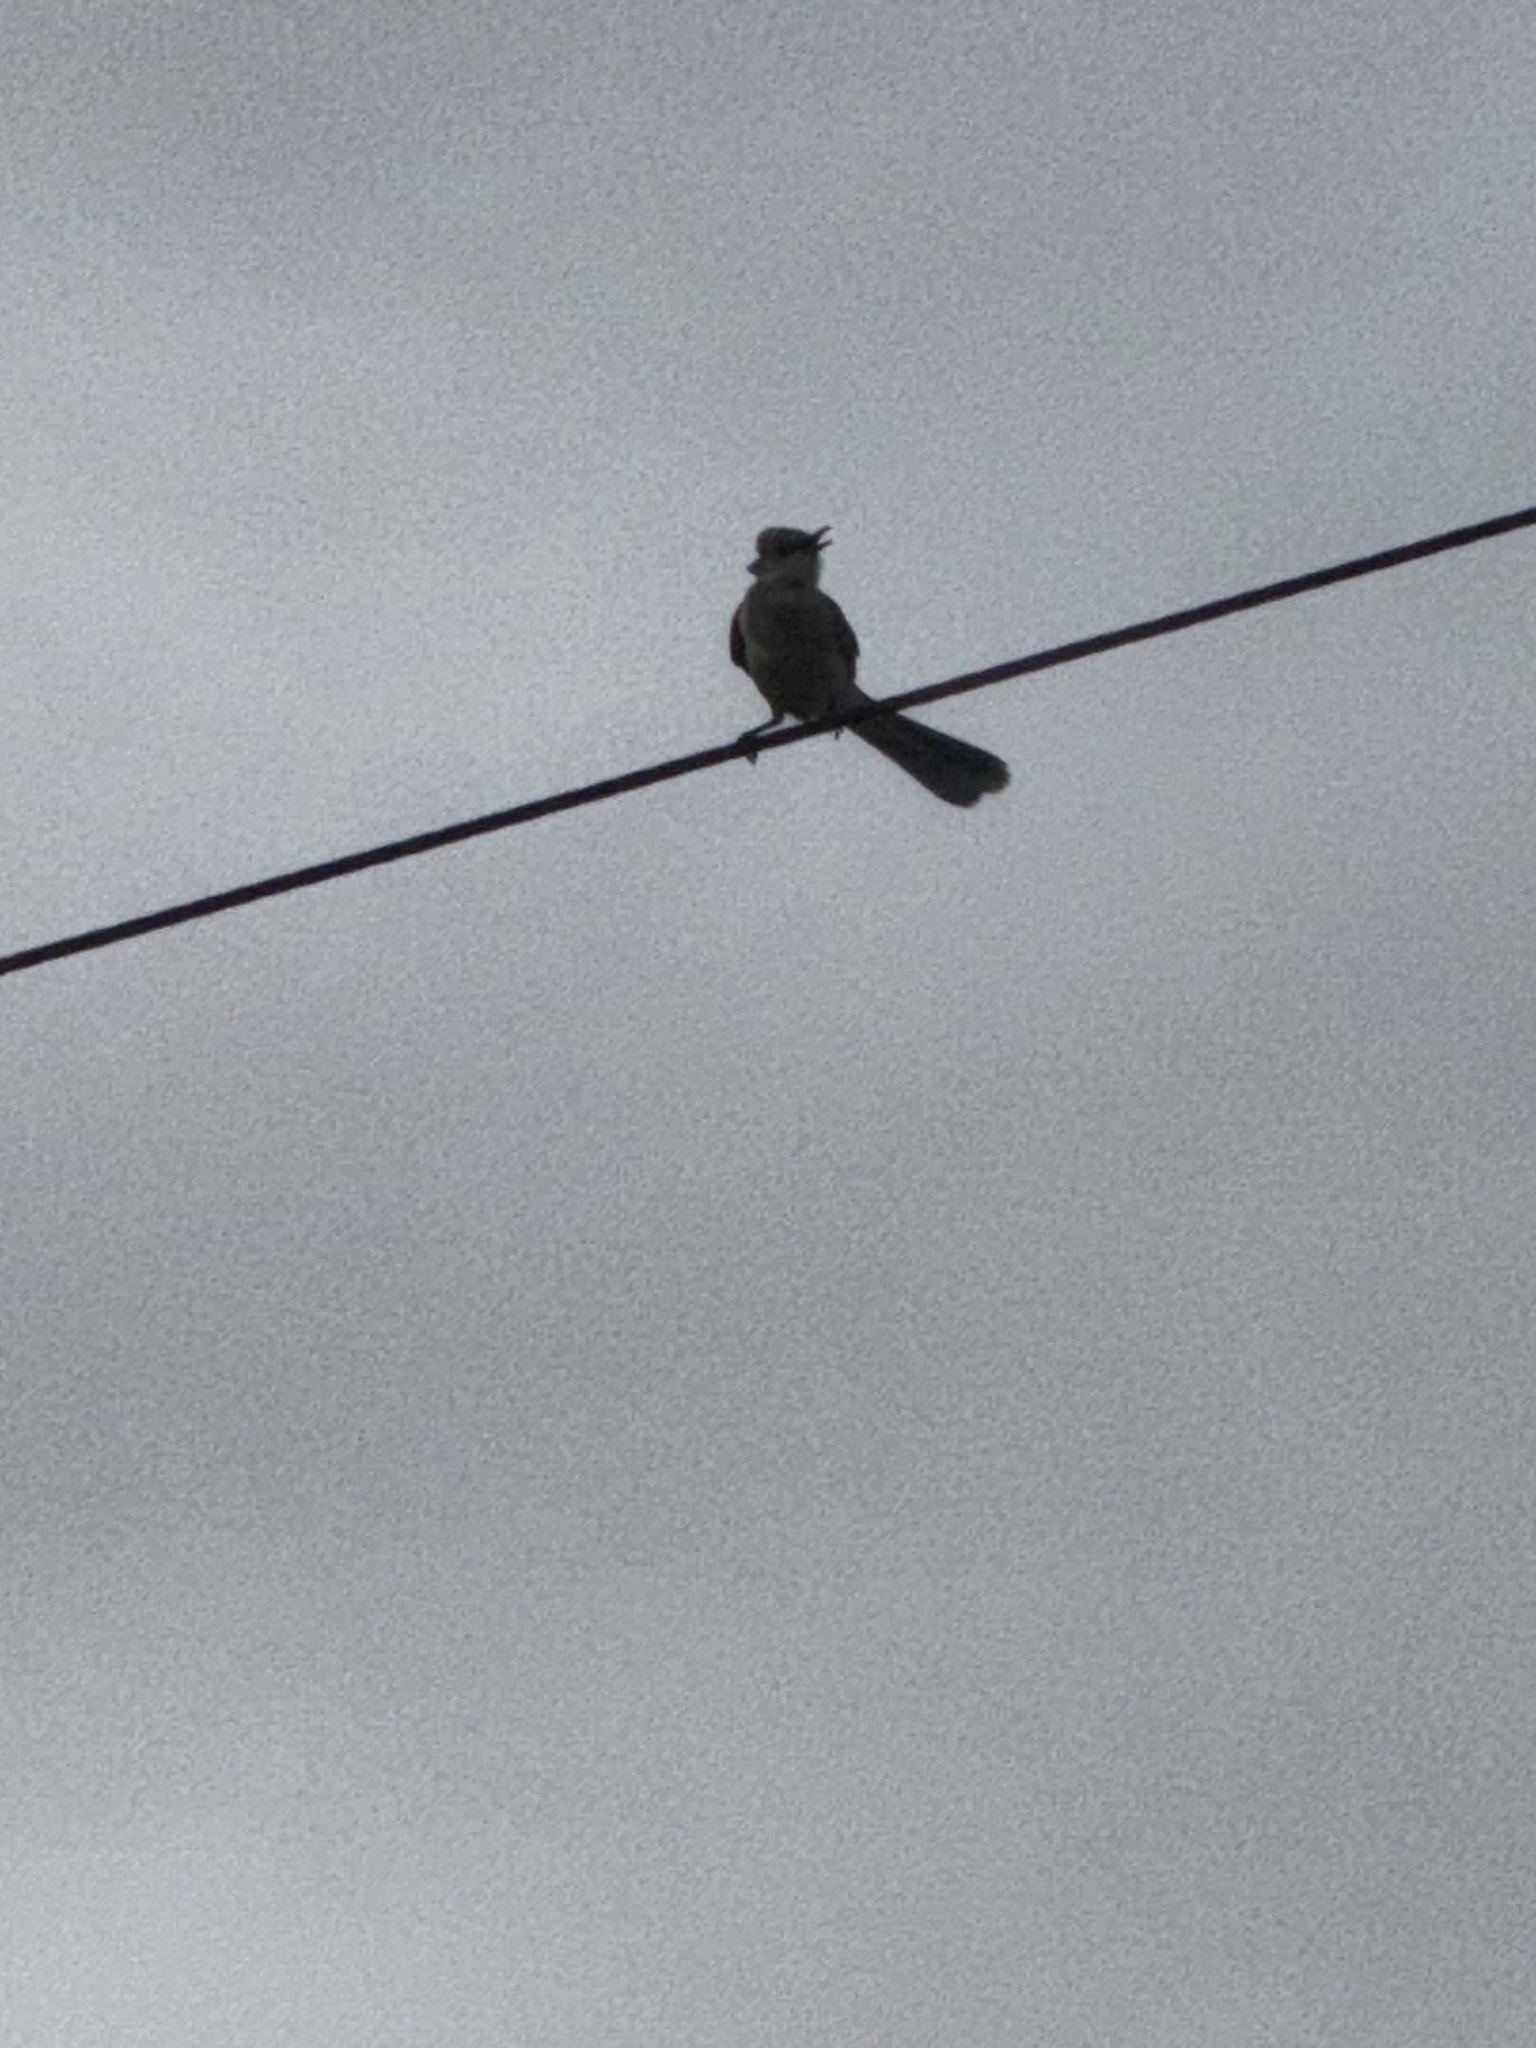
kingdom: Animalia
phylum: Chordata
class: Aves
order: Passeriformes
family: Mimidae
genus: Mimus
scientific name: Mimus polyglottos
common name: Northern mockingbird
